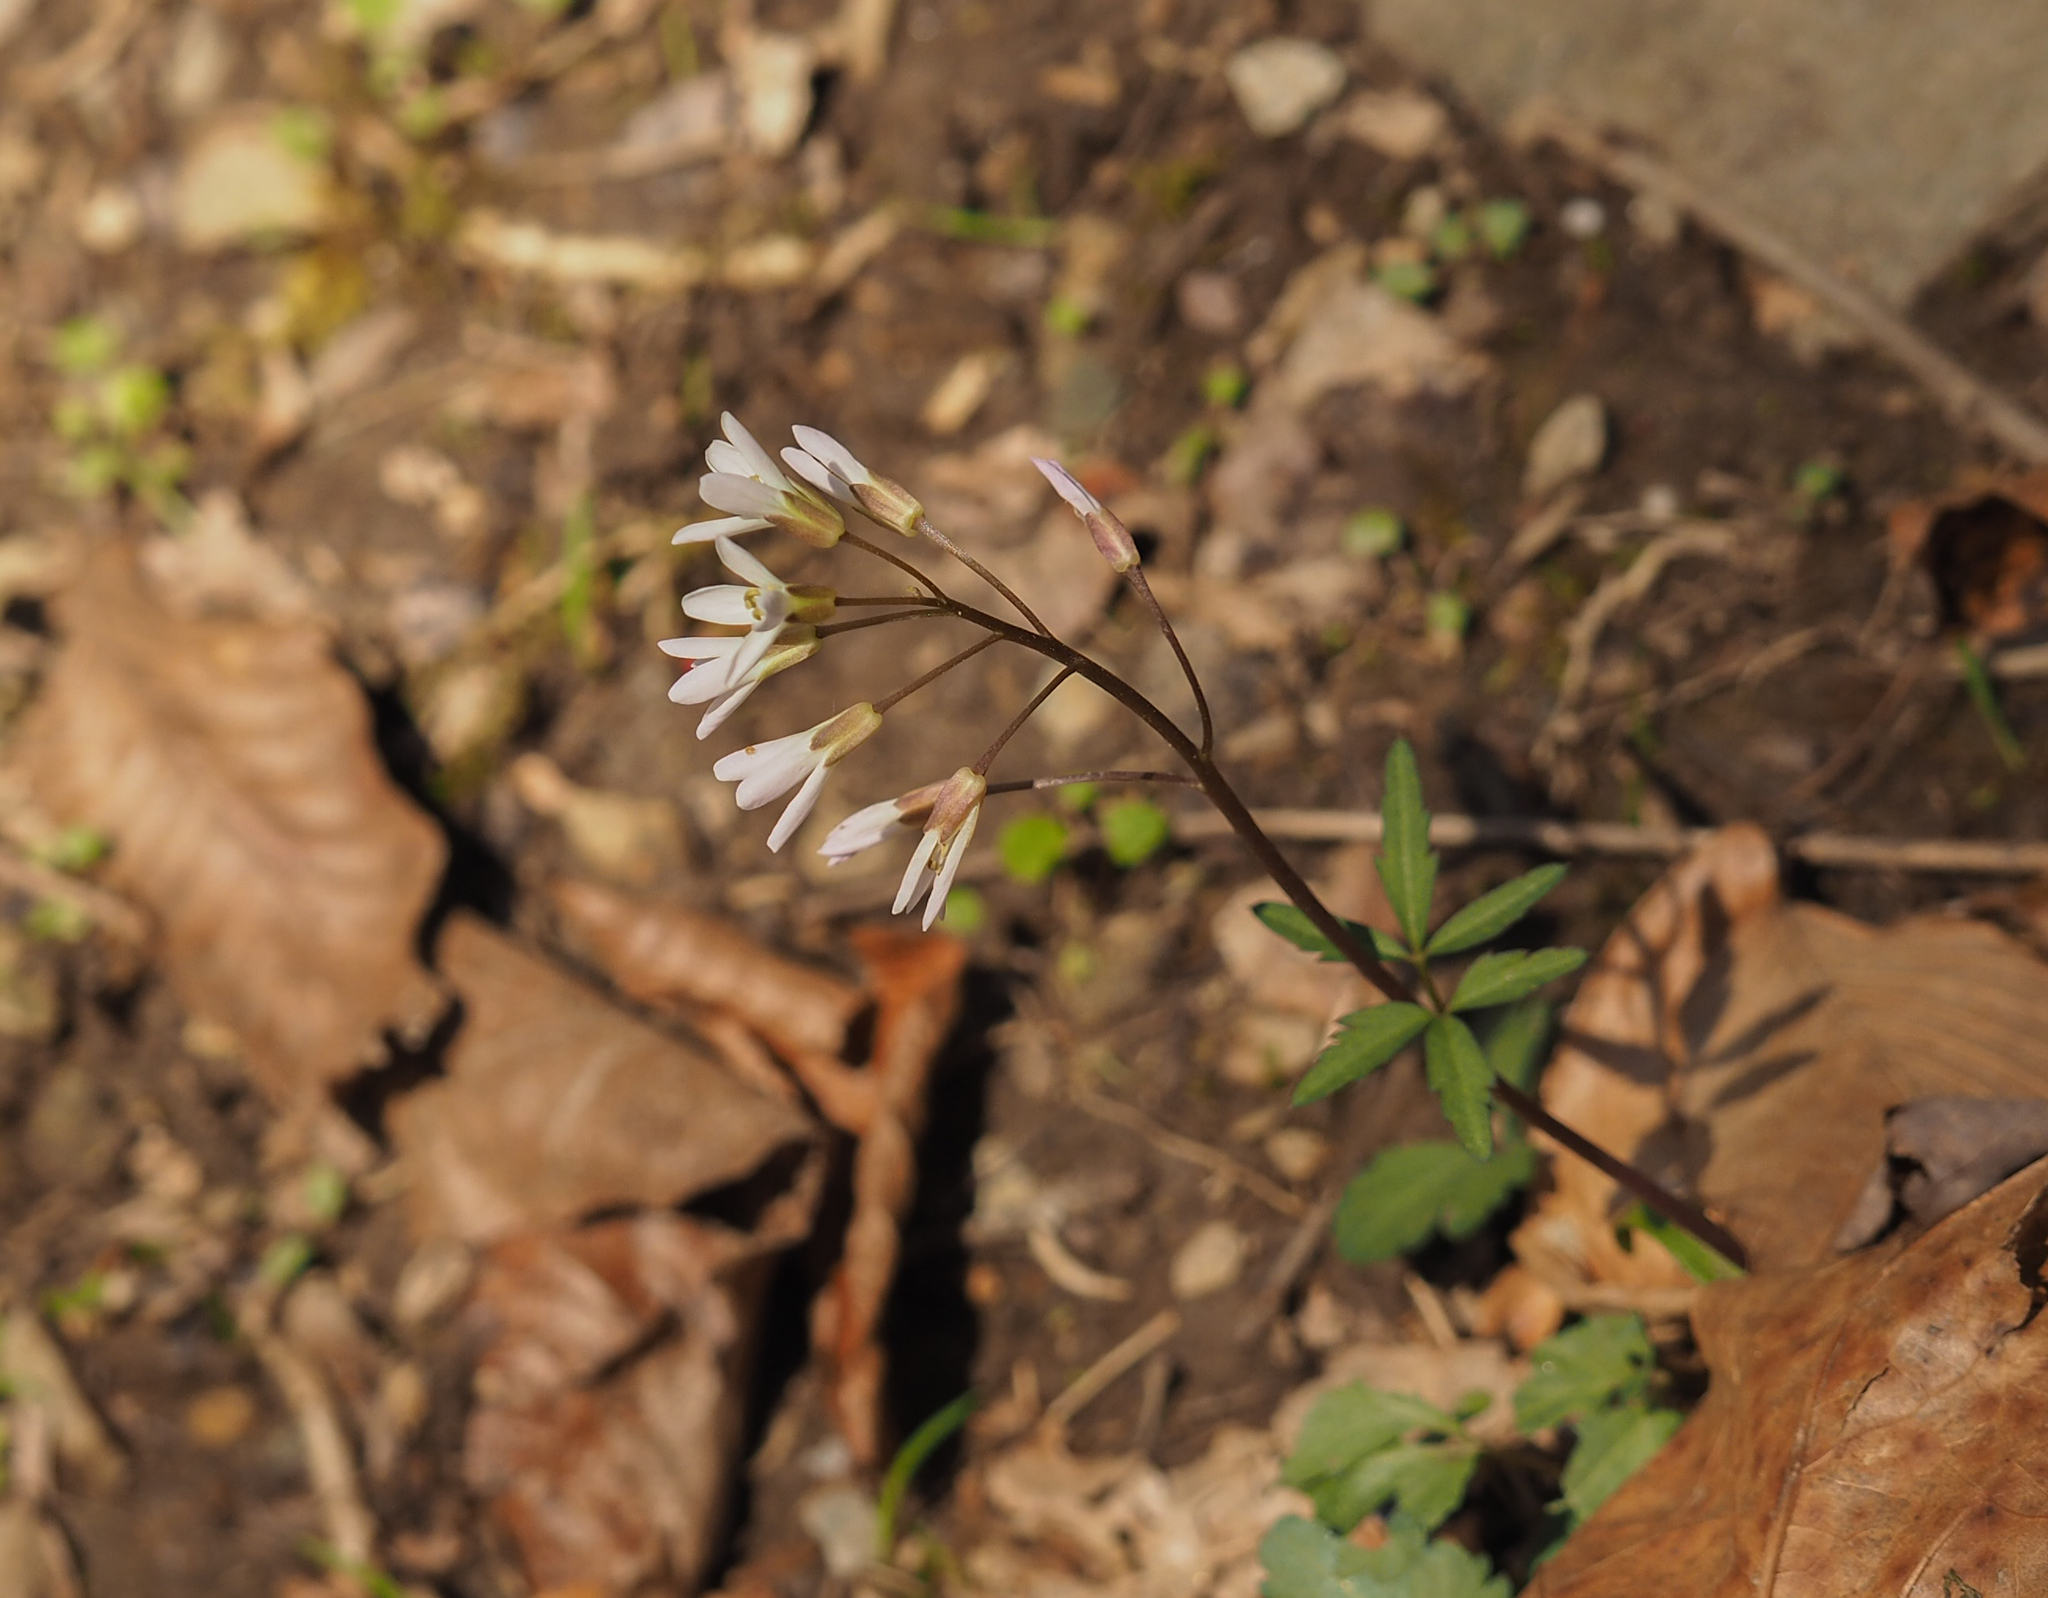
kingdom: Plantae
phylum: Tracheophyta
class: Magnoliopsida
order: Brassicales
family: Brassicaceae
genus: Cardamine
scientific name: Cardamine concatenata
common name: Cut-leaf toothcup
